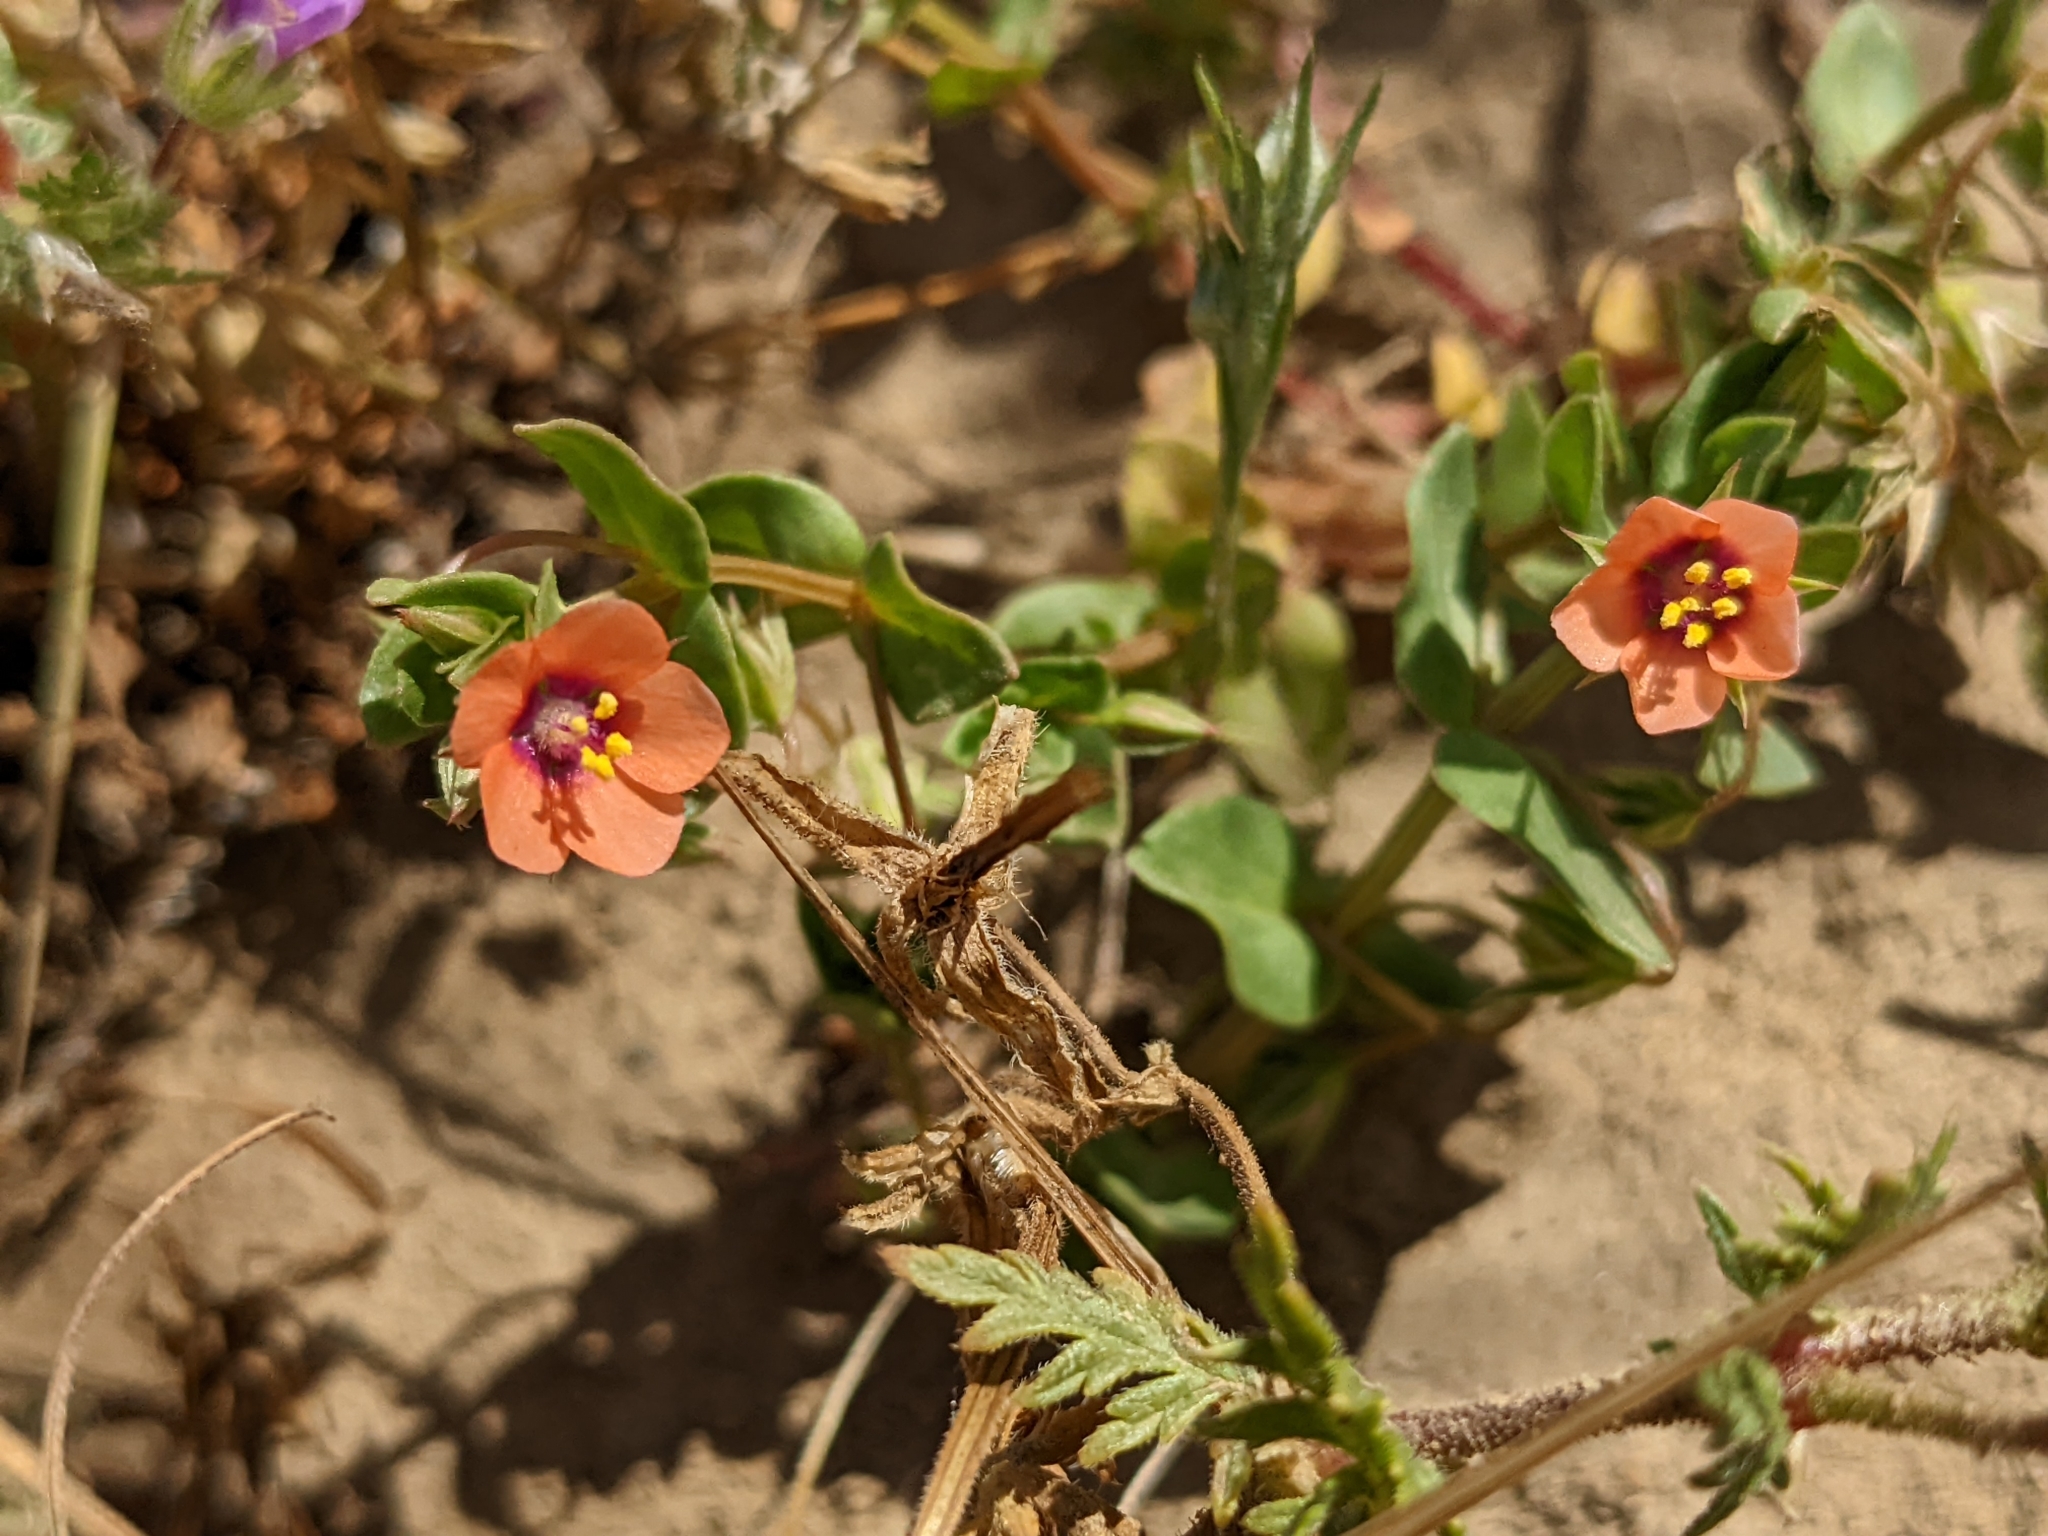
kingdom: Plantae
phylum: Tracheophyta
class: Magnoliopsida
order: Ericales
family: Primulaceae
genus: Lysimachia
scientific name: Lysimachia arvensis
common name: Scarlet pimpernel
